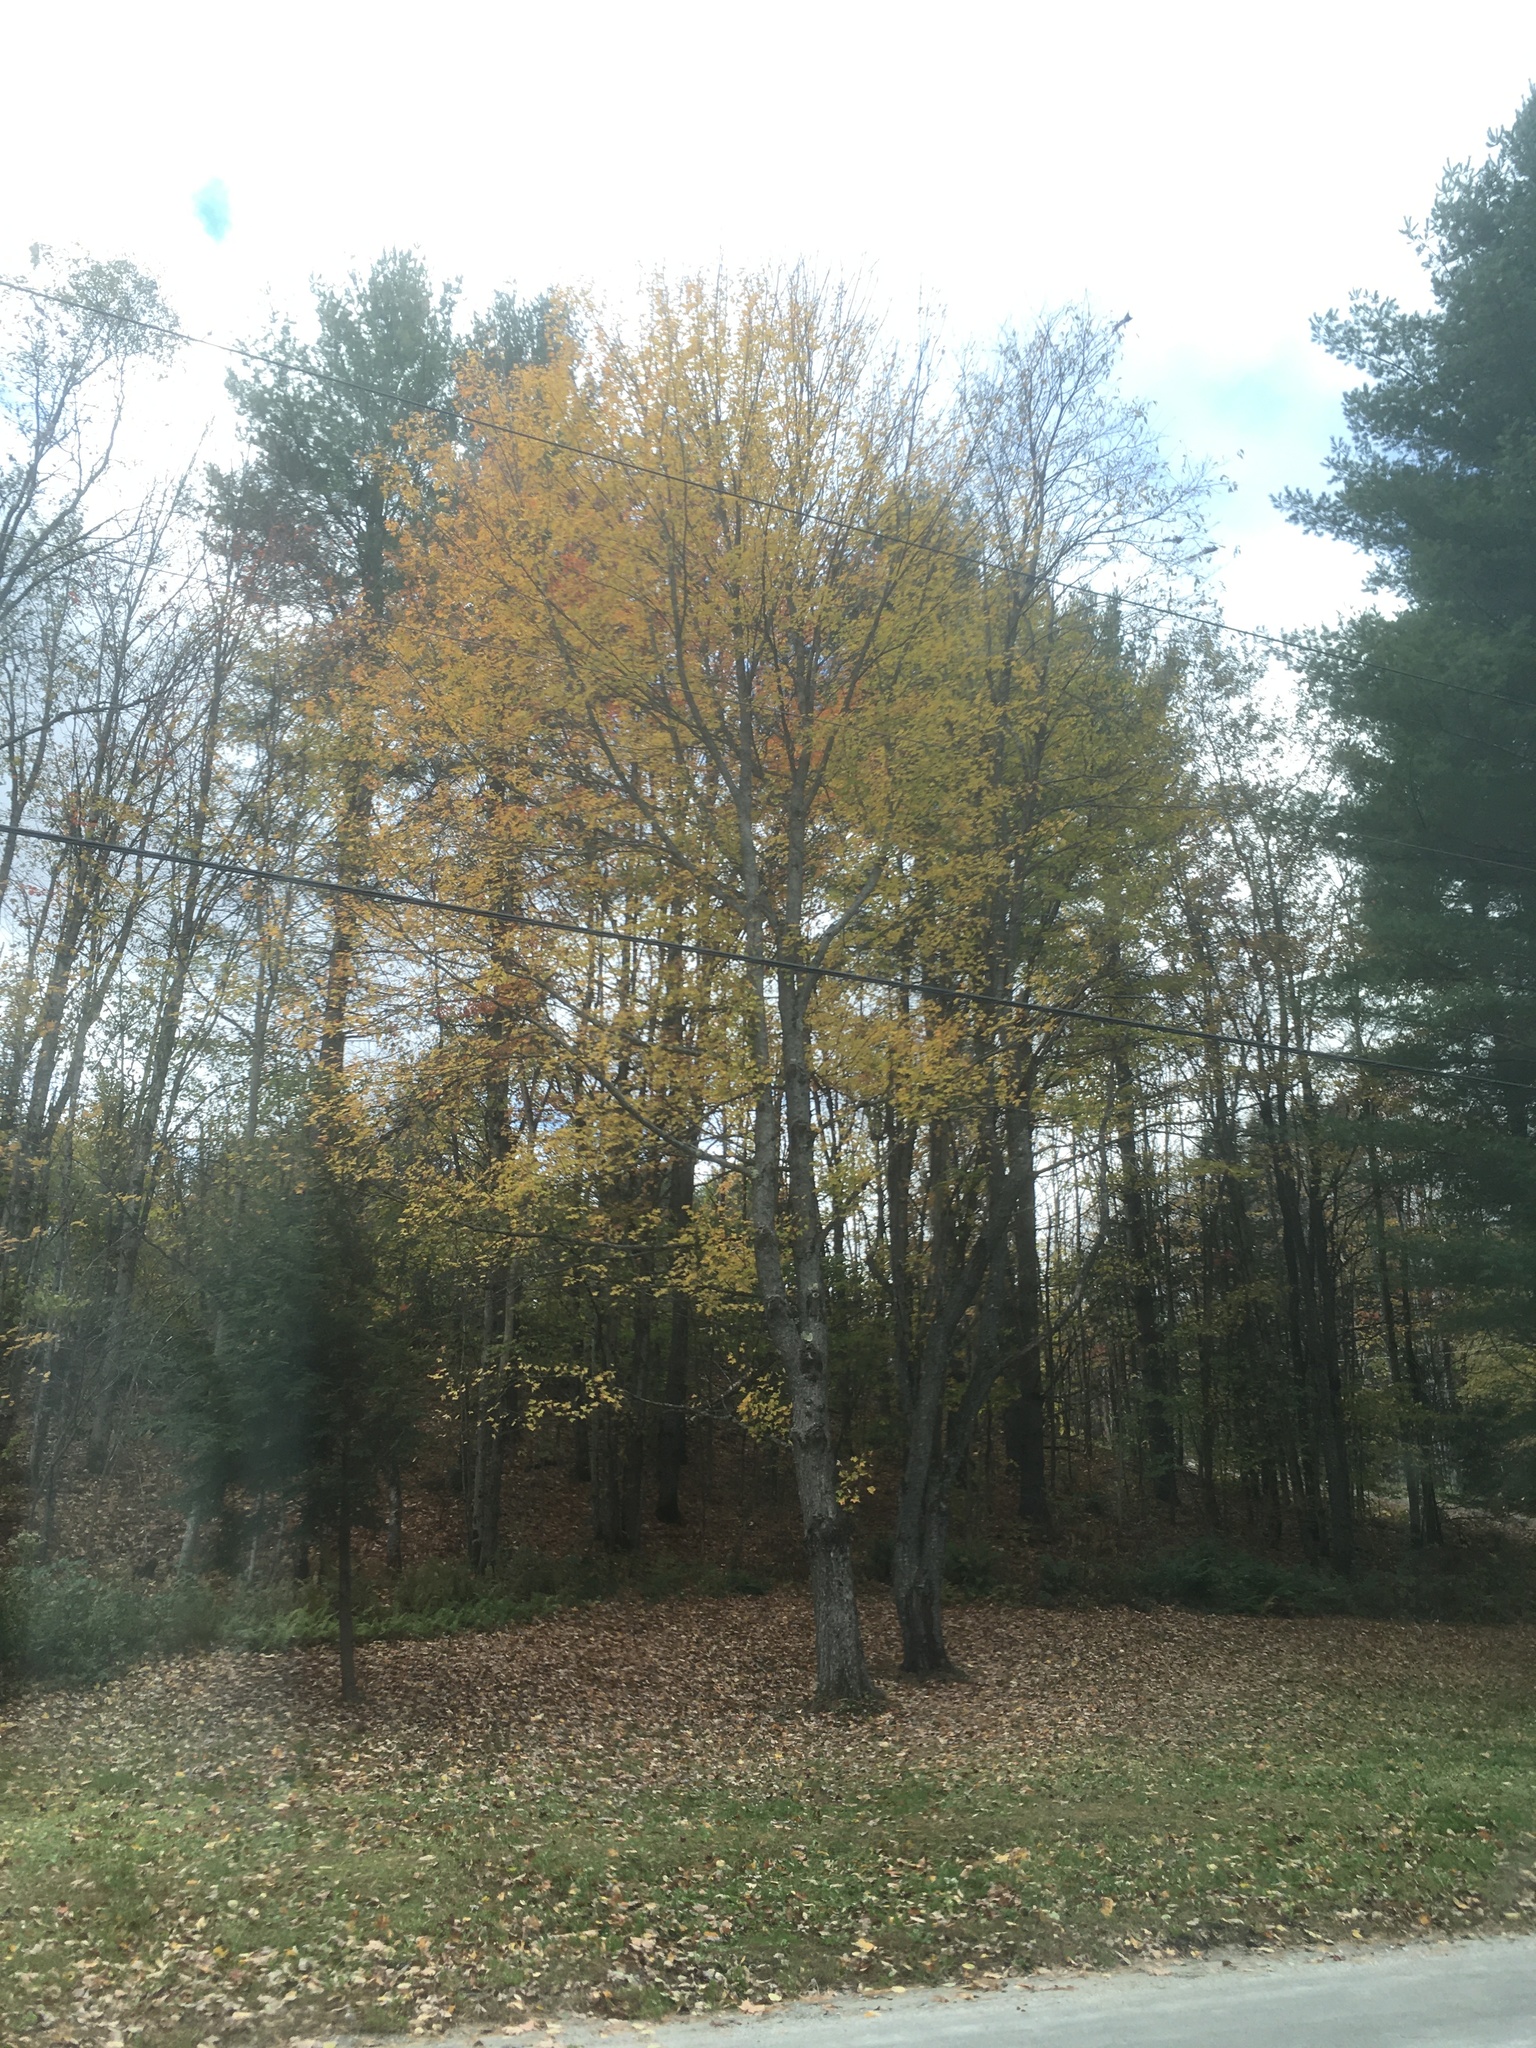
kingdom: Plantae
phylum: Tracheophyta
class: Magnoliopsida
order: Sapindales
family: Sapindaceae
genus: Acer
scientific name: Acer saccharum
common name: Sugar maple
